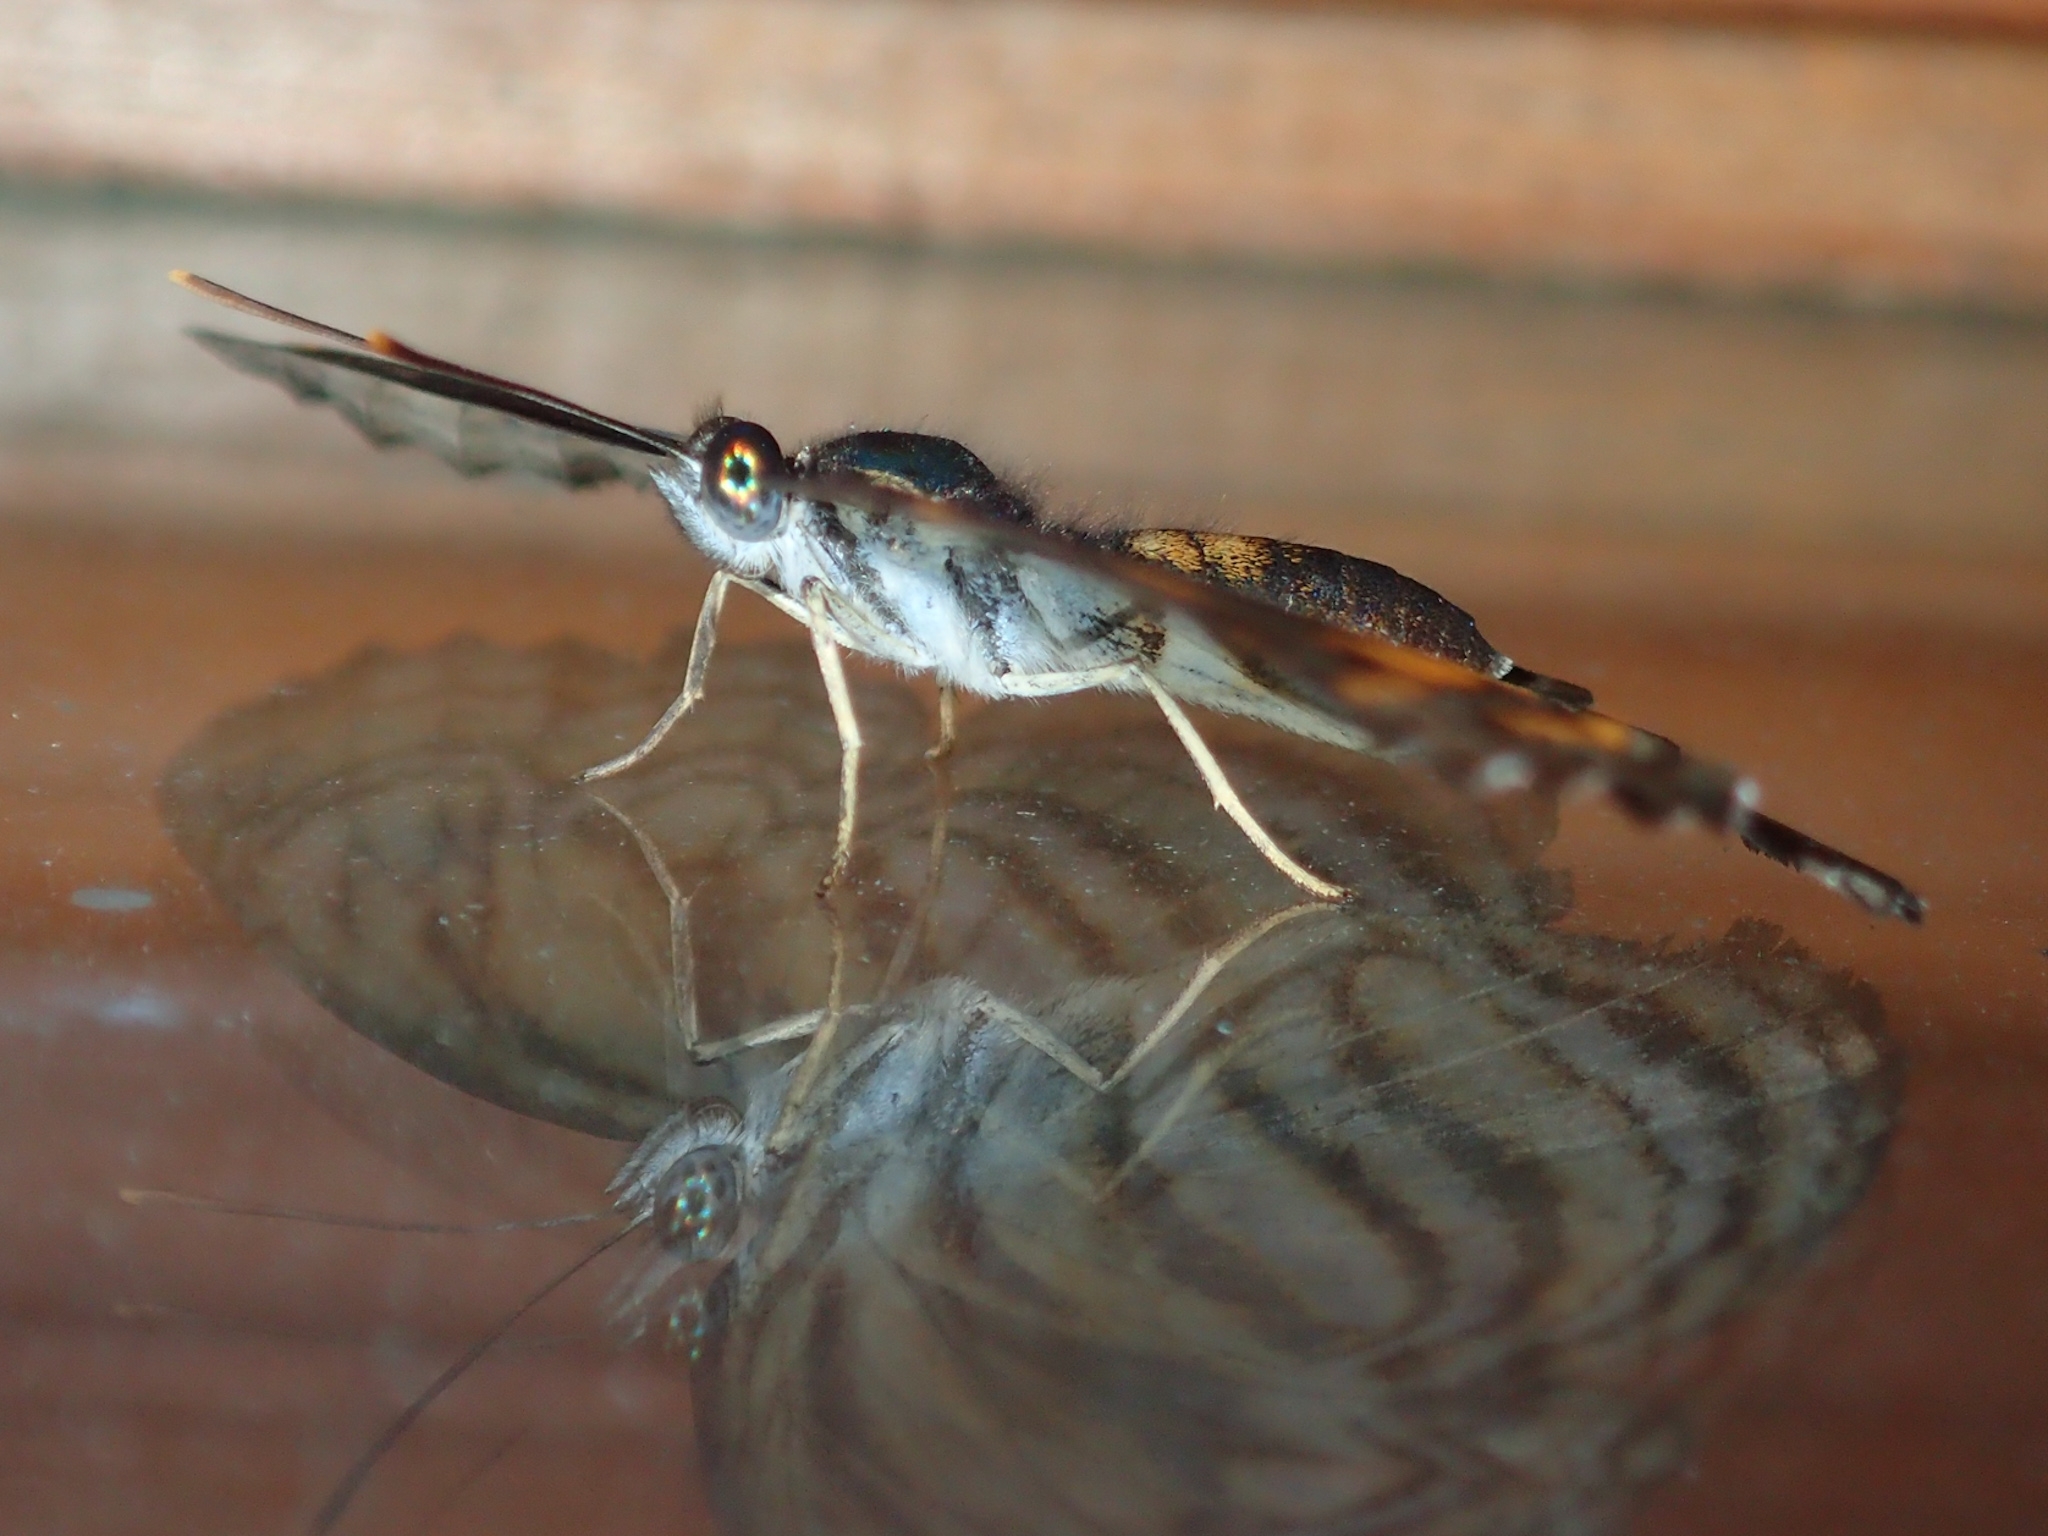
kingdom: Animalia
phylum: Arthropoda
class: Insecta
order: Lepidoptera
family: Nymphalidae
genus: Pantoporia
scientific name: Pantoporia antara
